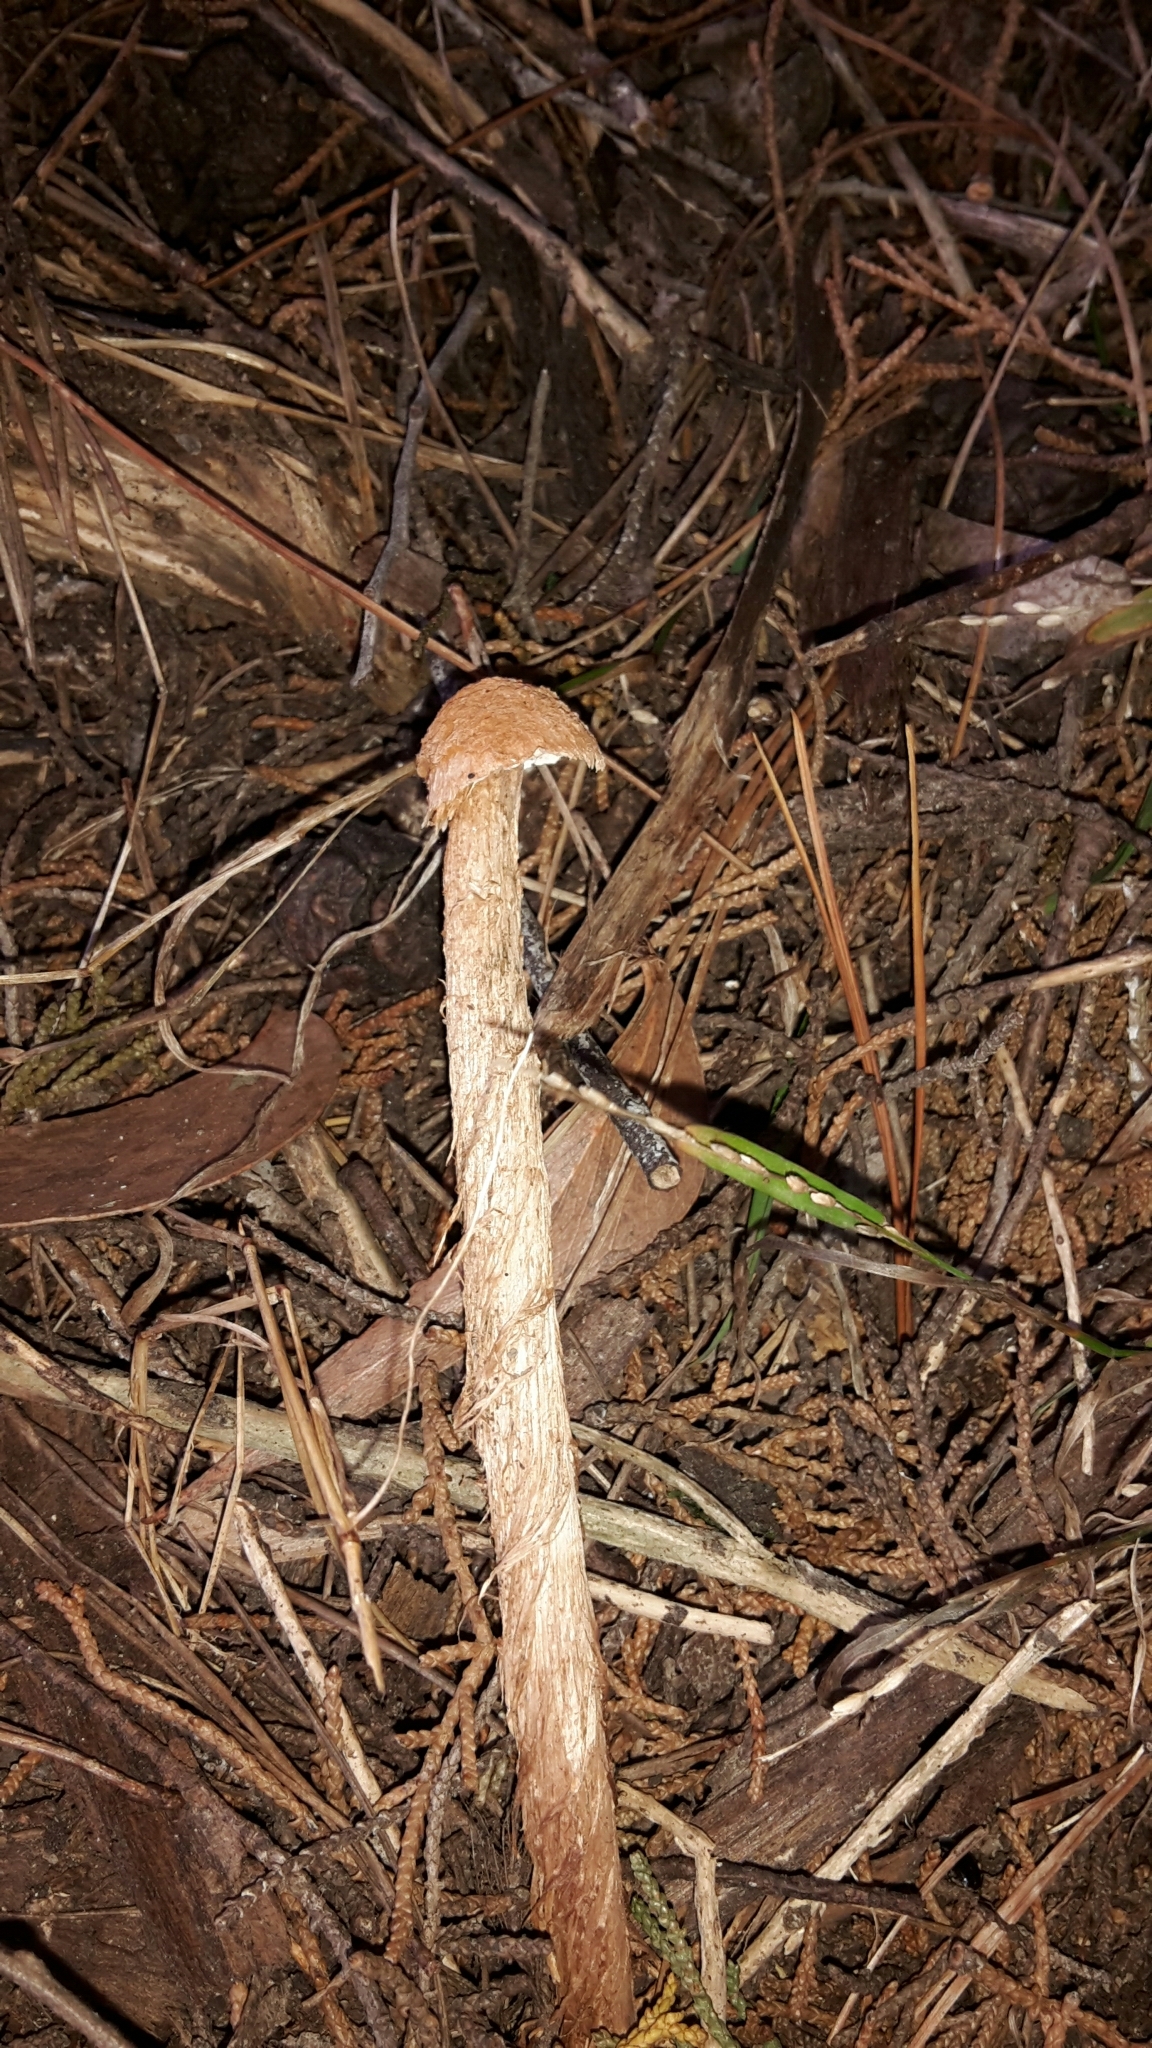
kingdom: Fungi
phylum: Basidiomycota
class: Agaricomycetes
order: Agaricales
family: Agaricaceae
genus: Battarrea
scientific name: Battarrea phalloides
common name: Sandy stiltball
